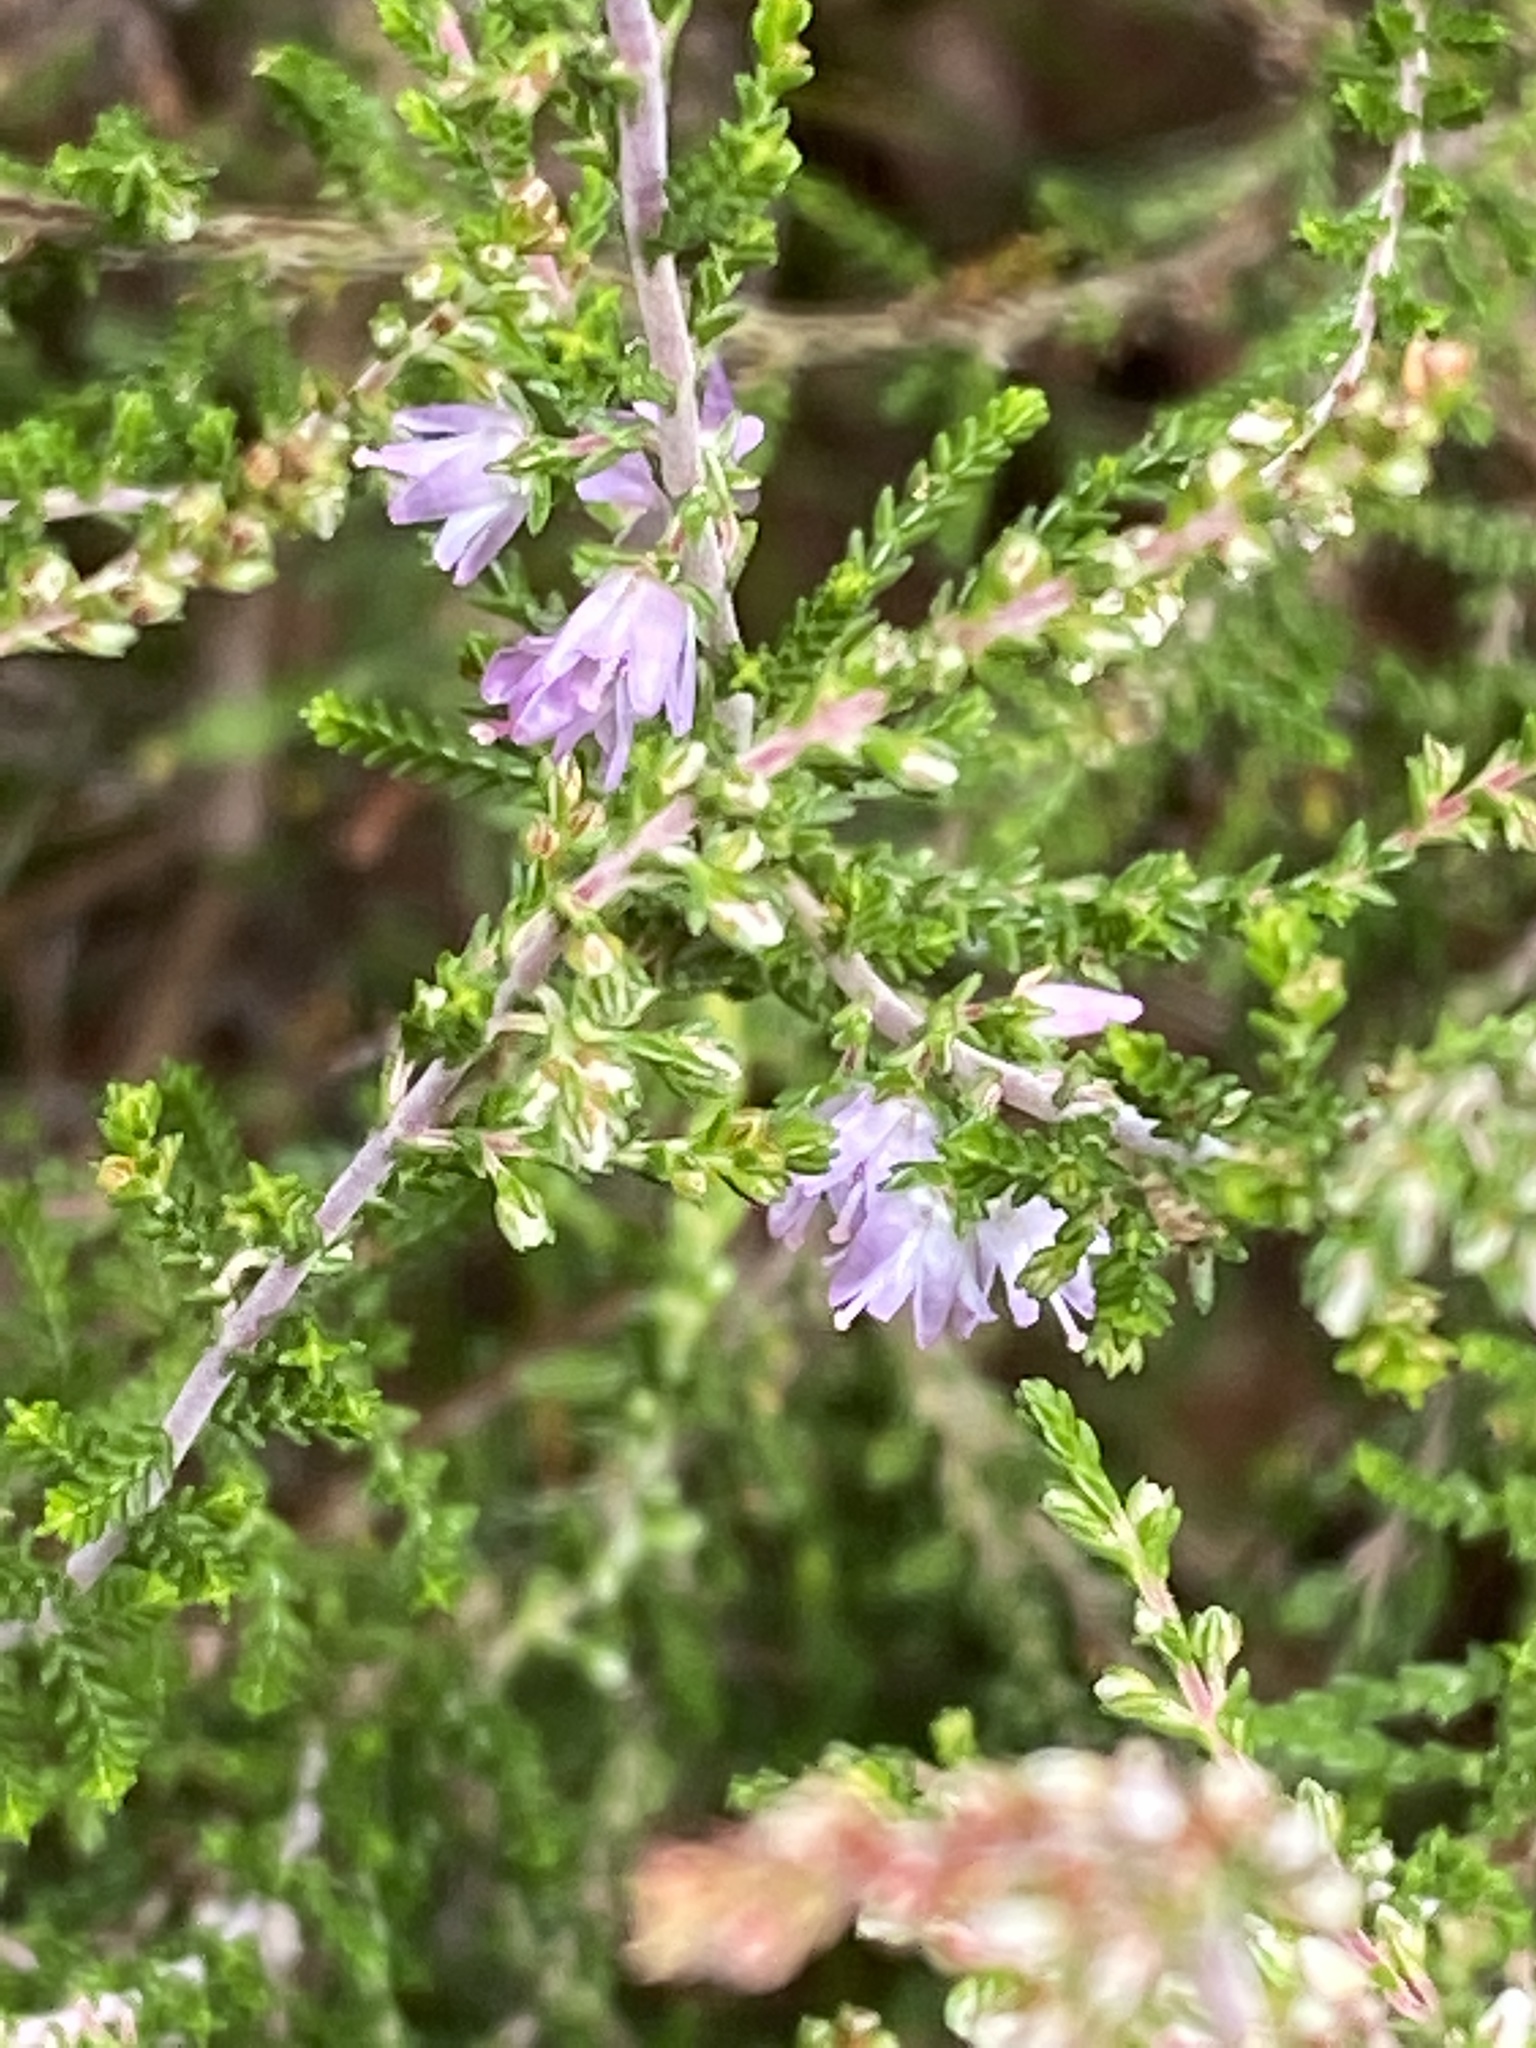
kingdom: Plantae
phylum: Tracheophyta
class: Magnoliopsida
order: Ericales
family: Ericaceae
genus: Calluna
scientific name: Calluna vulgaris
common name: Heather
